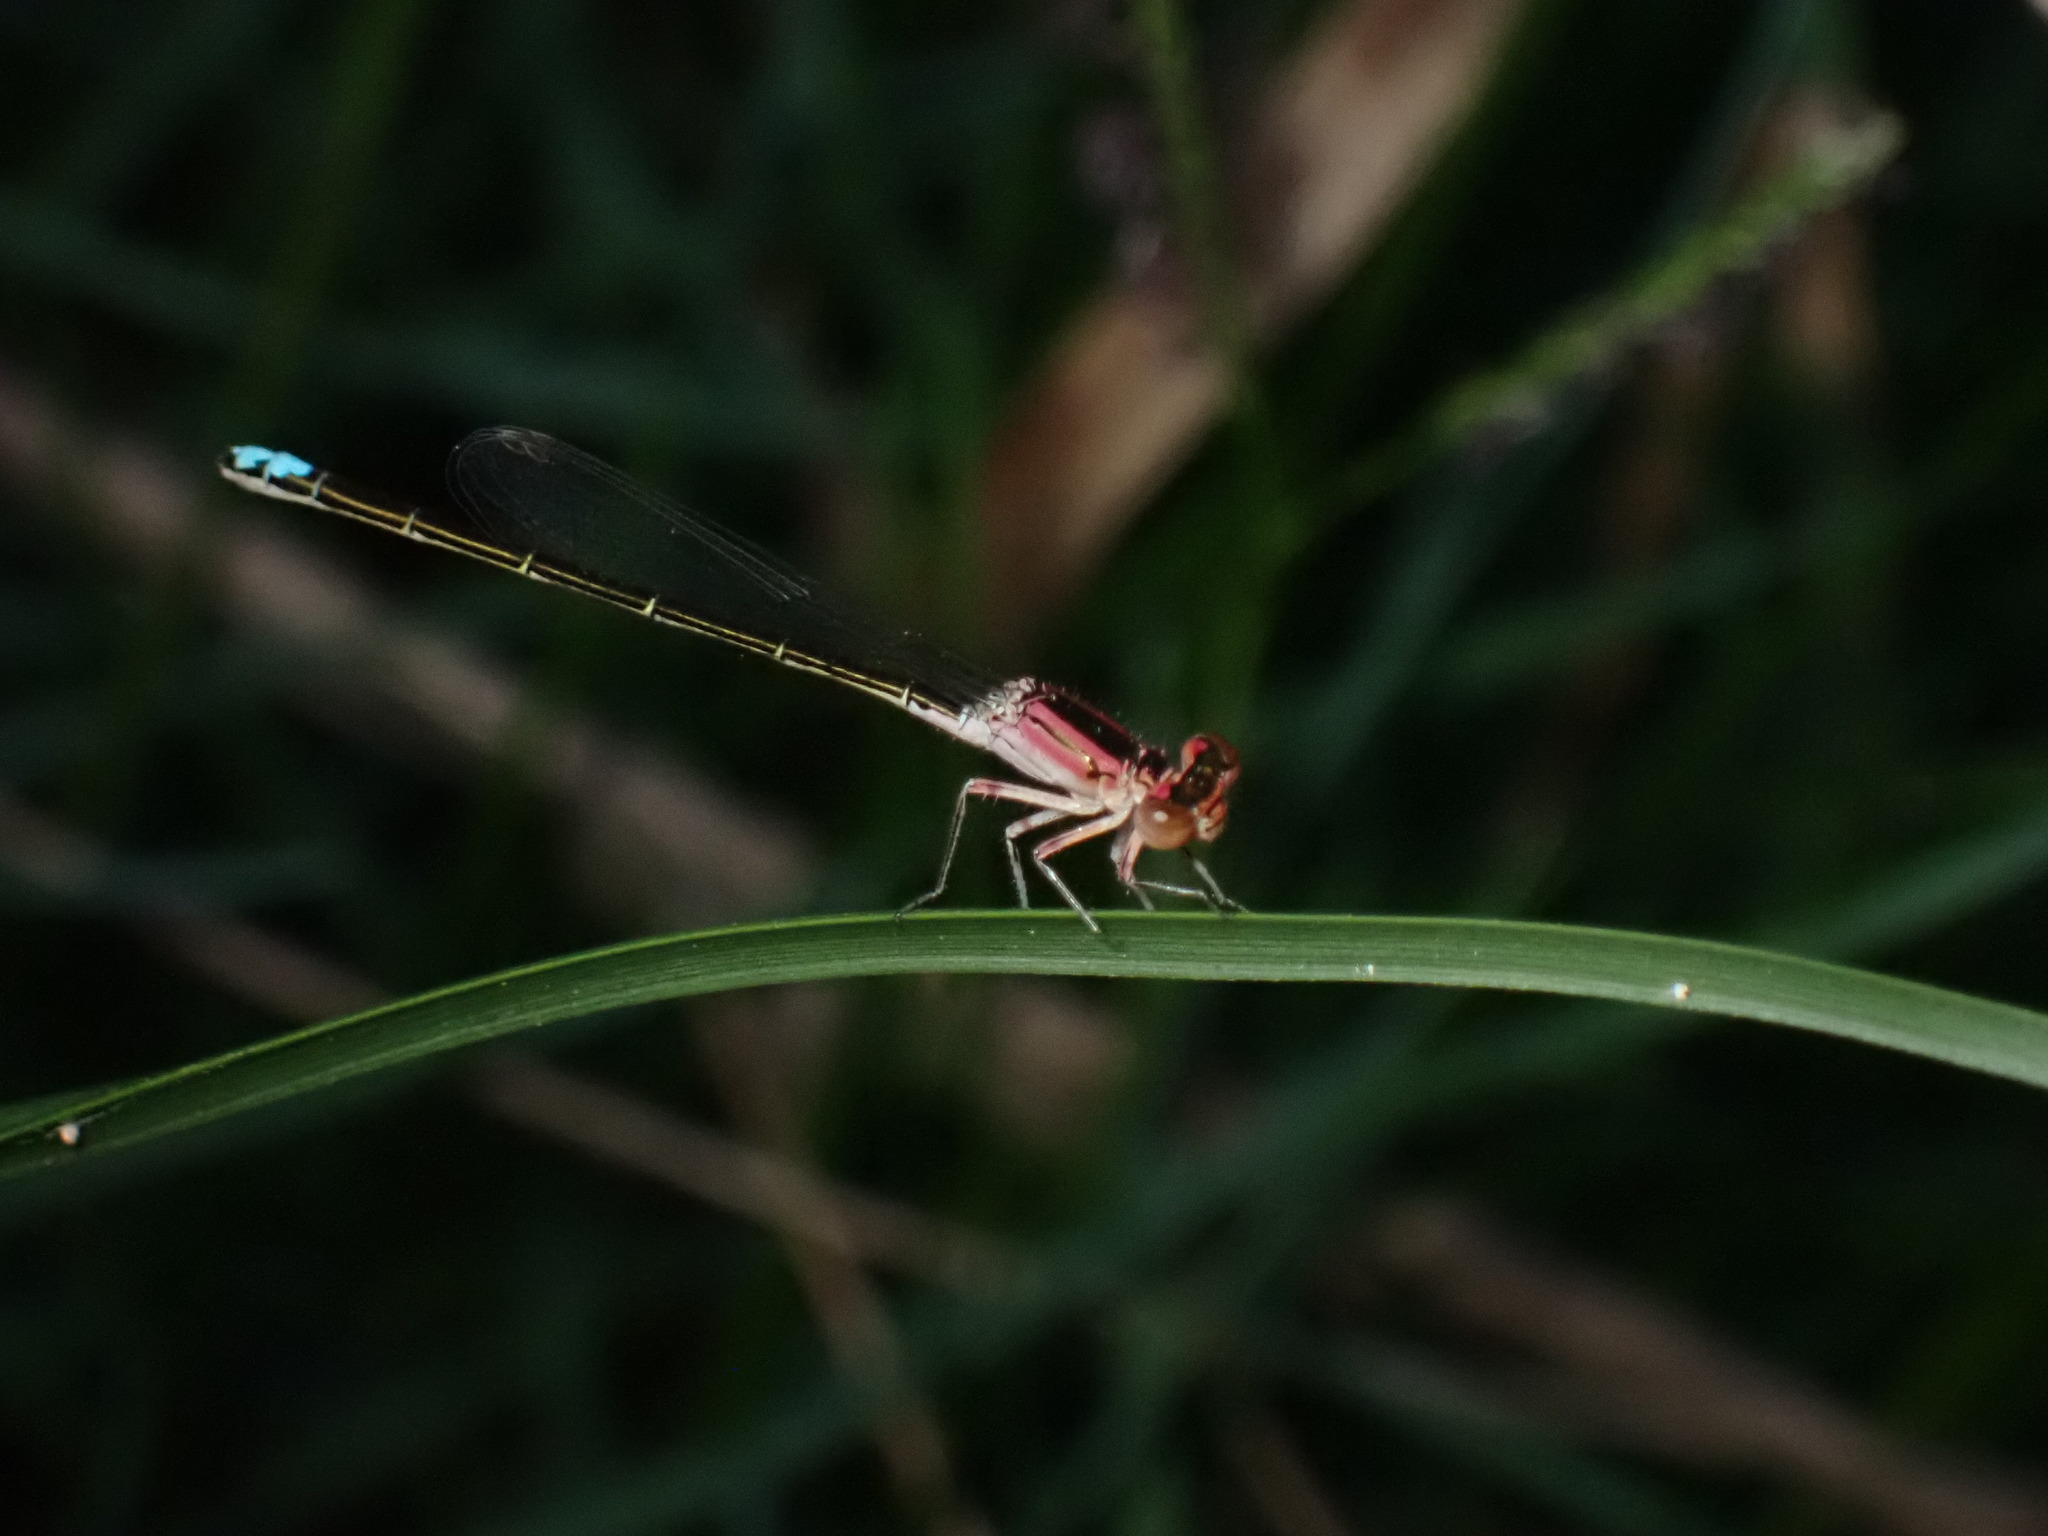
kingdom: Animalia
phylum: Arthropoda
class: Insecta
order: Odonata
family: Coenagrionidae
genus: Ischnura
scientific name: Ischnura denticollis
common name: Black-fronted forktail
